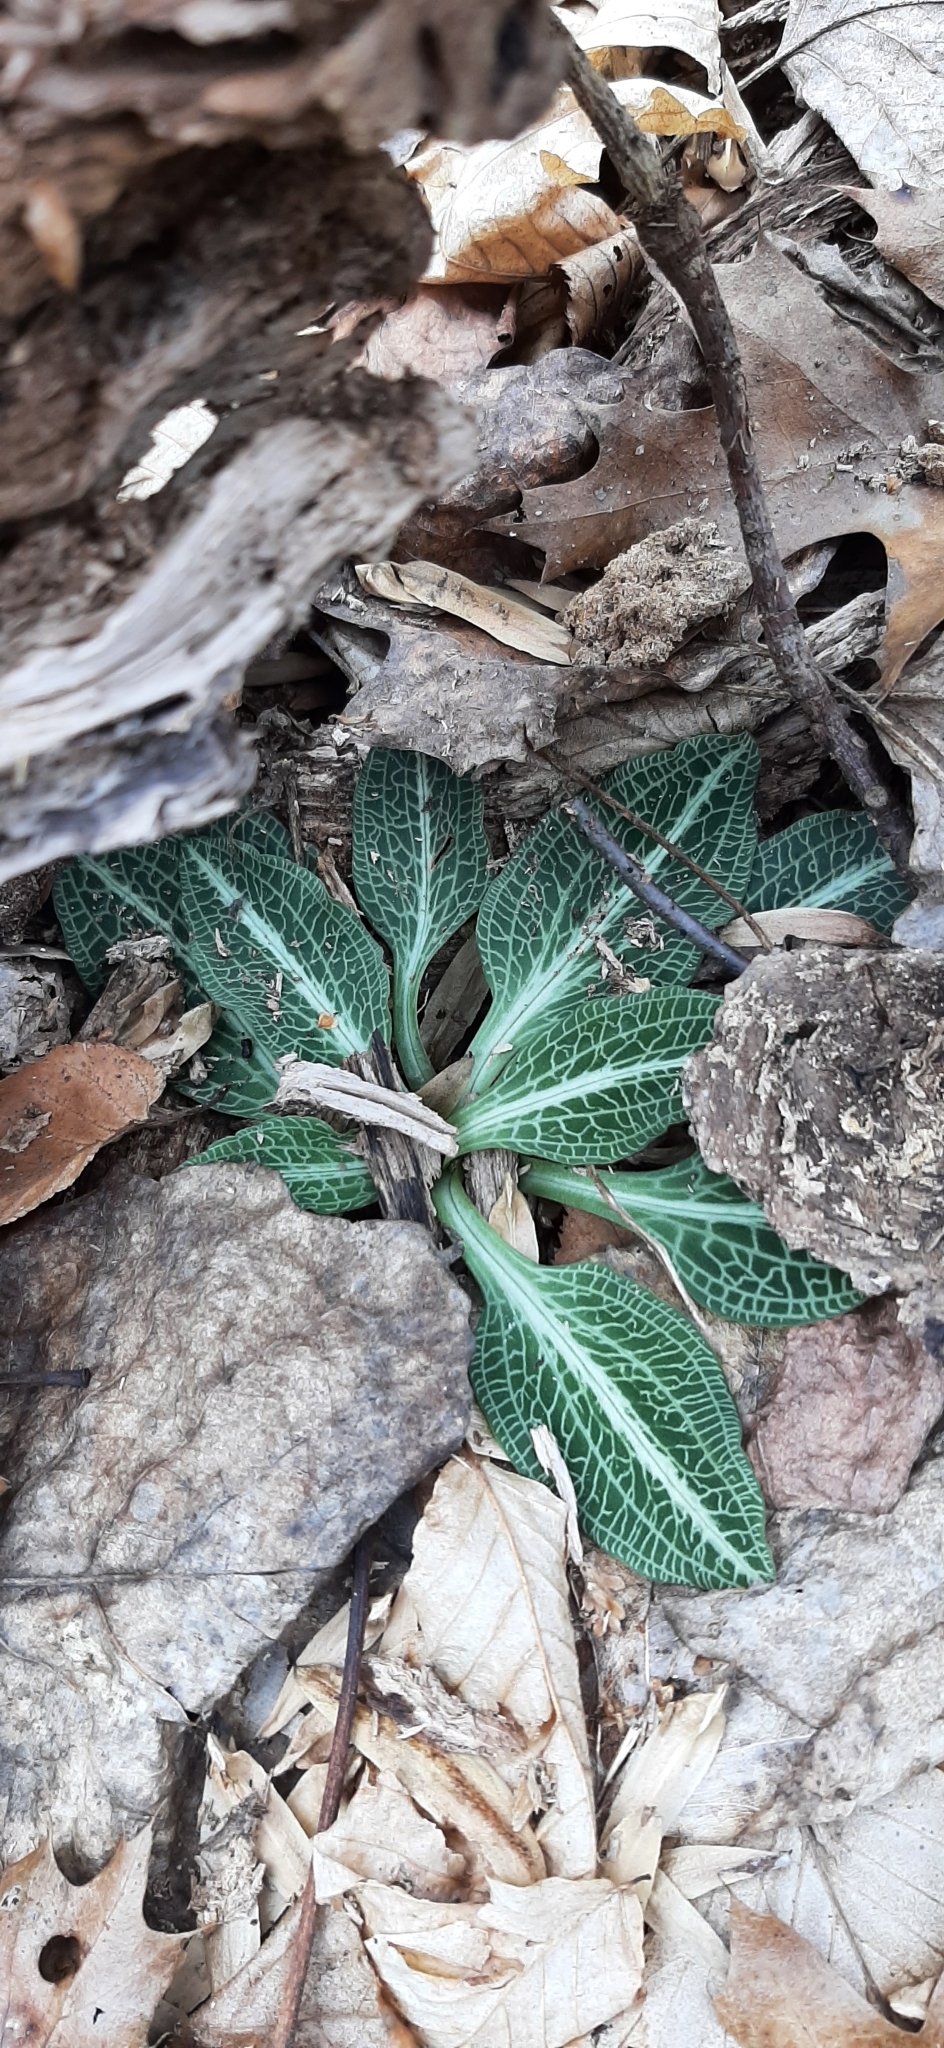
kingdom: Plantae
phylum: Tracheophyta
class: Liliopsida
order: Asparagales
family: Orchidaceae
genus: Goodyera
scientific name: Goodyera pubescens
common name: Downy rattlesnake-plantain
